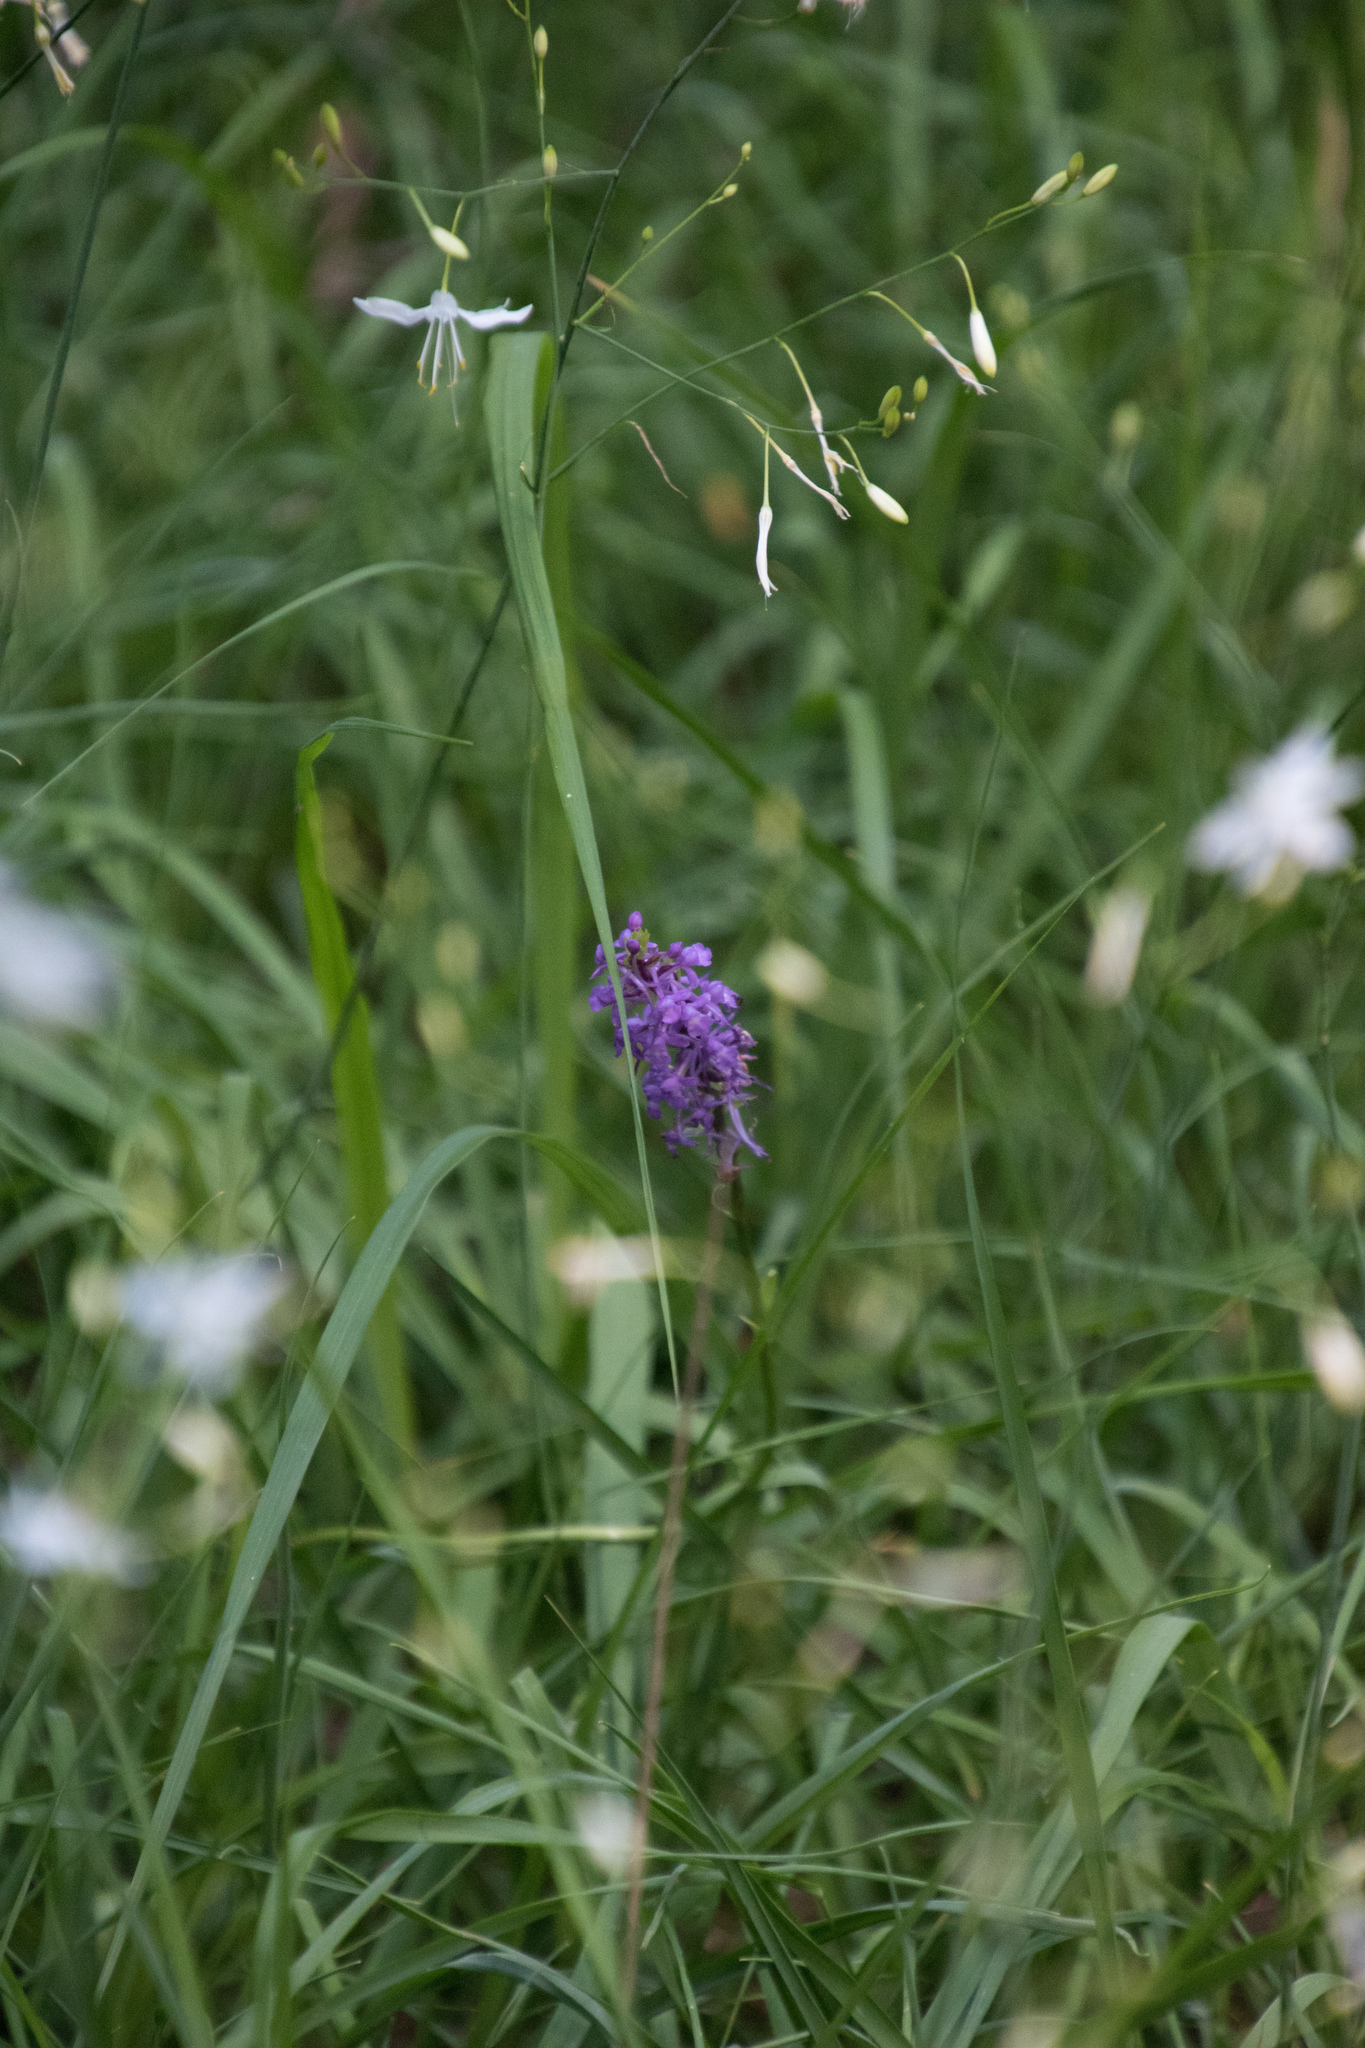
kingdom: Plantae
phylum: Tracheophyta
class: Liliopsida
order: Asparagales
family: Orchidaceae
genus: Gymnadenia
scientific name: Gymnadenia conopsea
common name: Fragrant orchid
